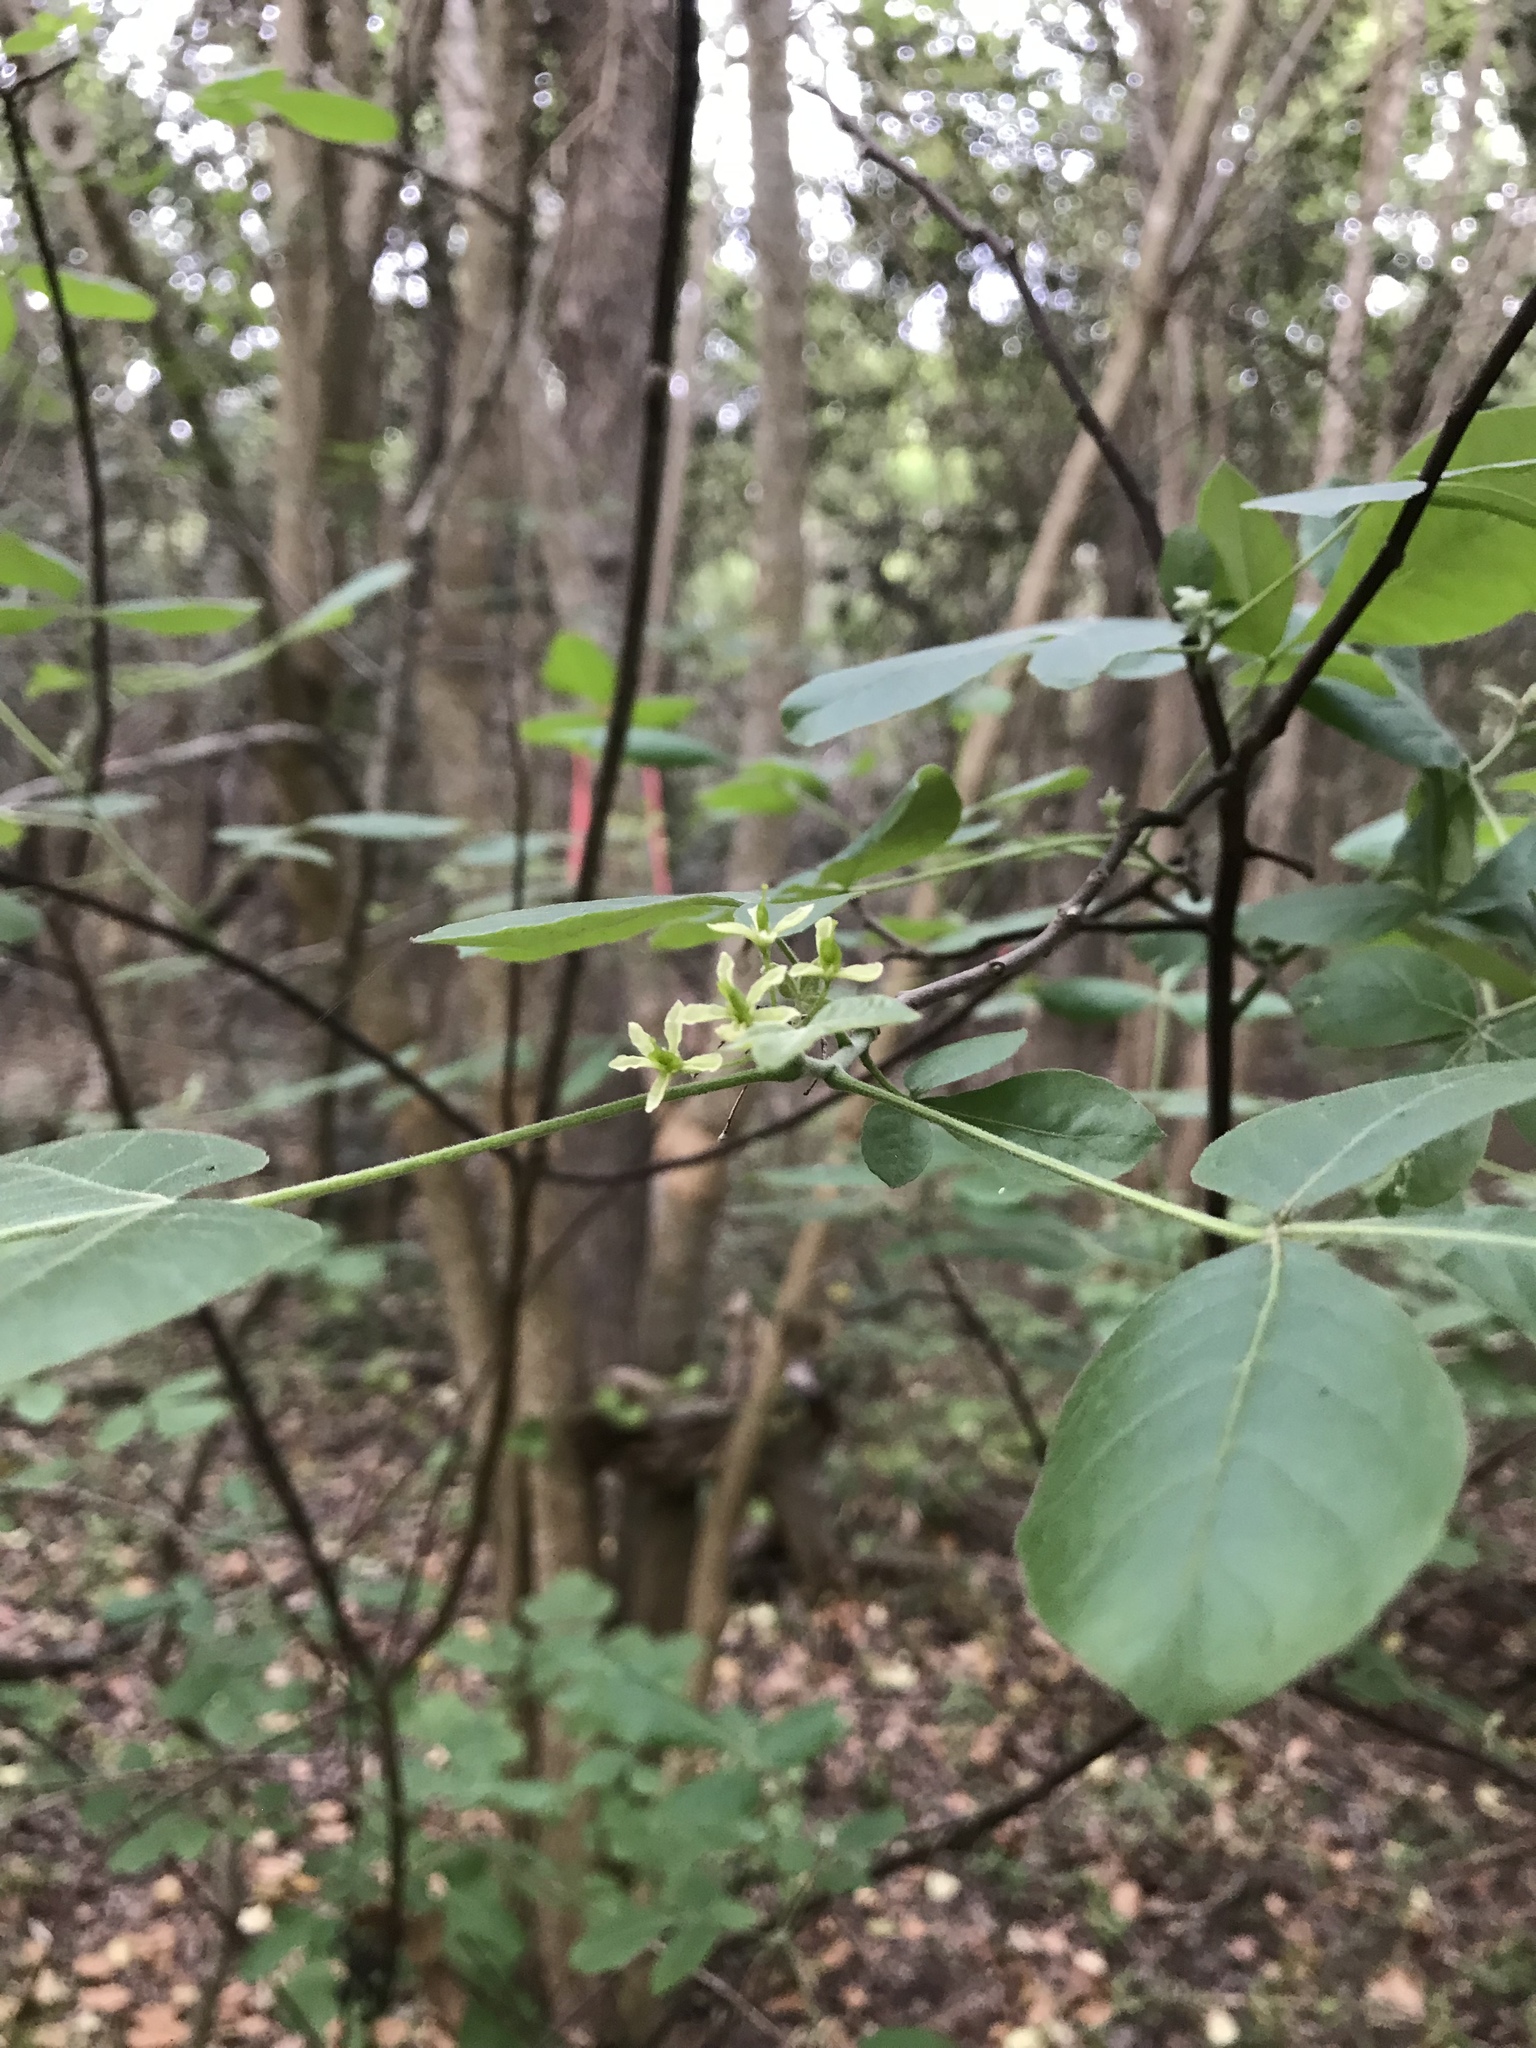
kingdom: Plantae
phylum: Tracheophyta
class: Magnoliopsida
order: Sapindales
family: Rutaceae
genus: Ptelea
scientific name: Ptelea trifoliata
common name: Common hop-tree
